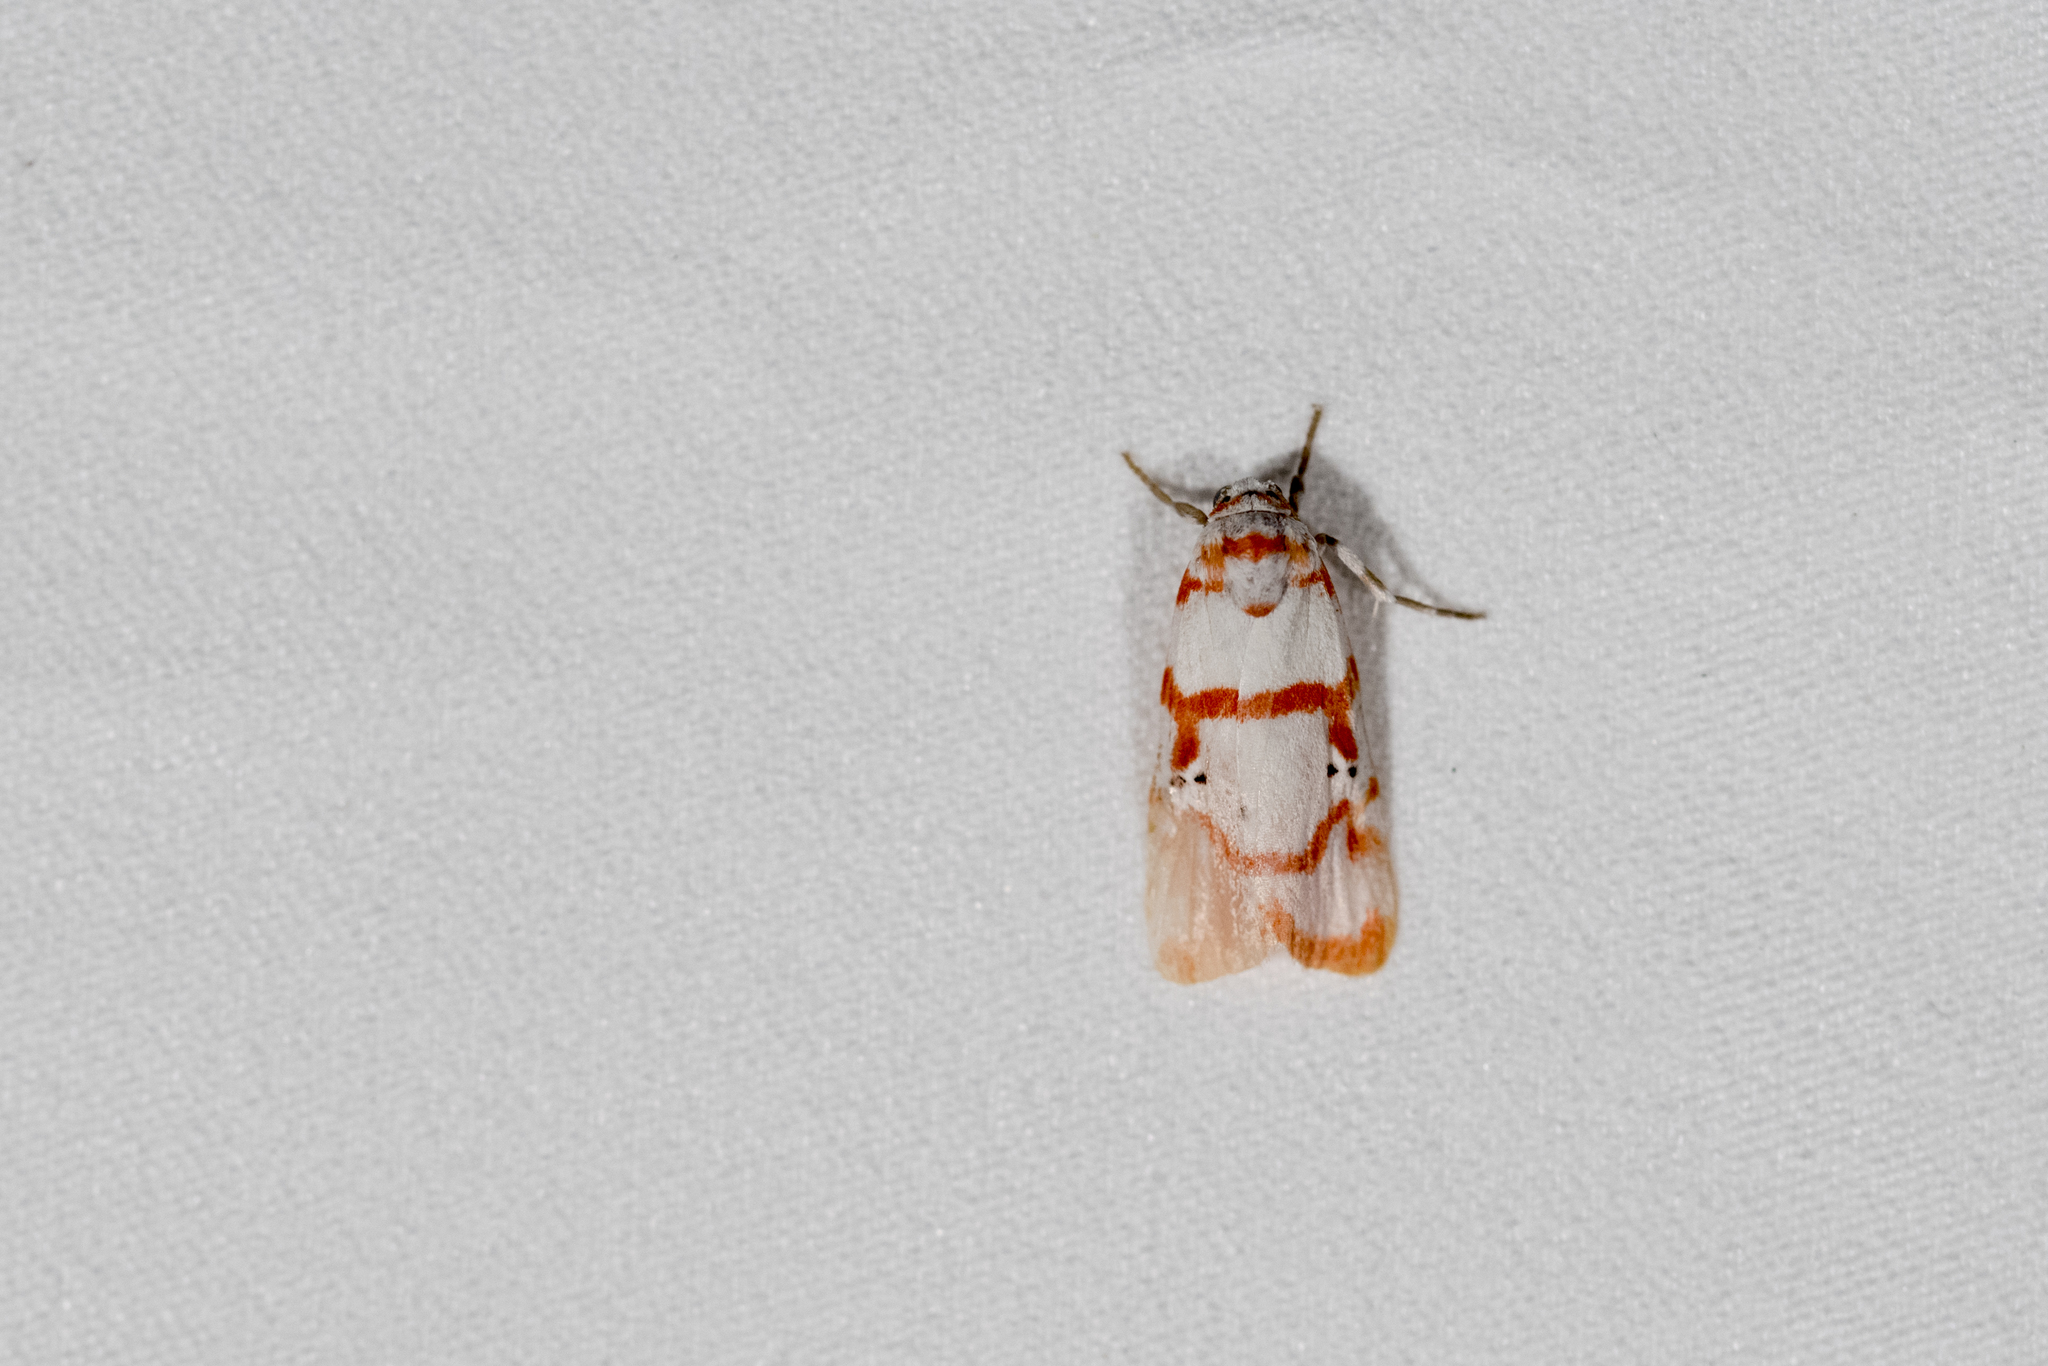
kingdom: Animalia
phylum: Arthropoda
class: Insecta
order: Lepidoptera
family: Erebidae
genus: Cyana
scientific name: Cyana hamata
